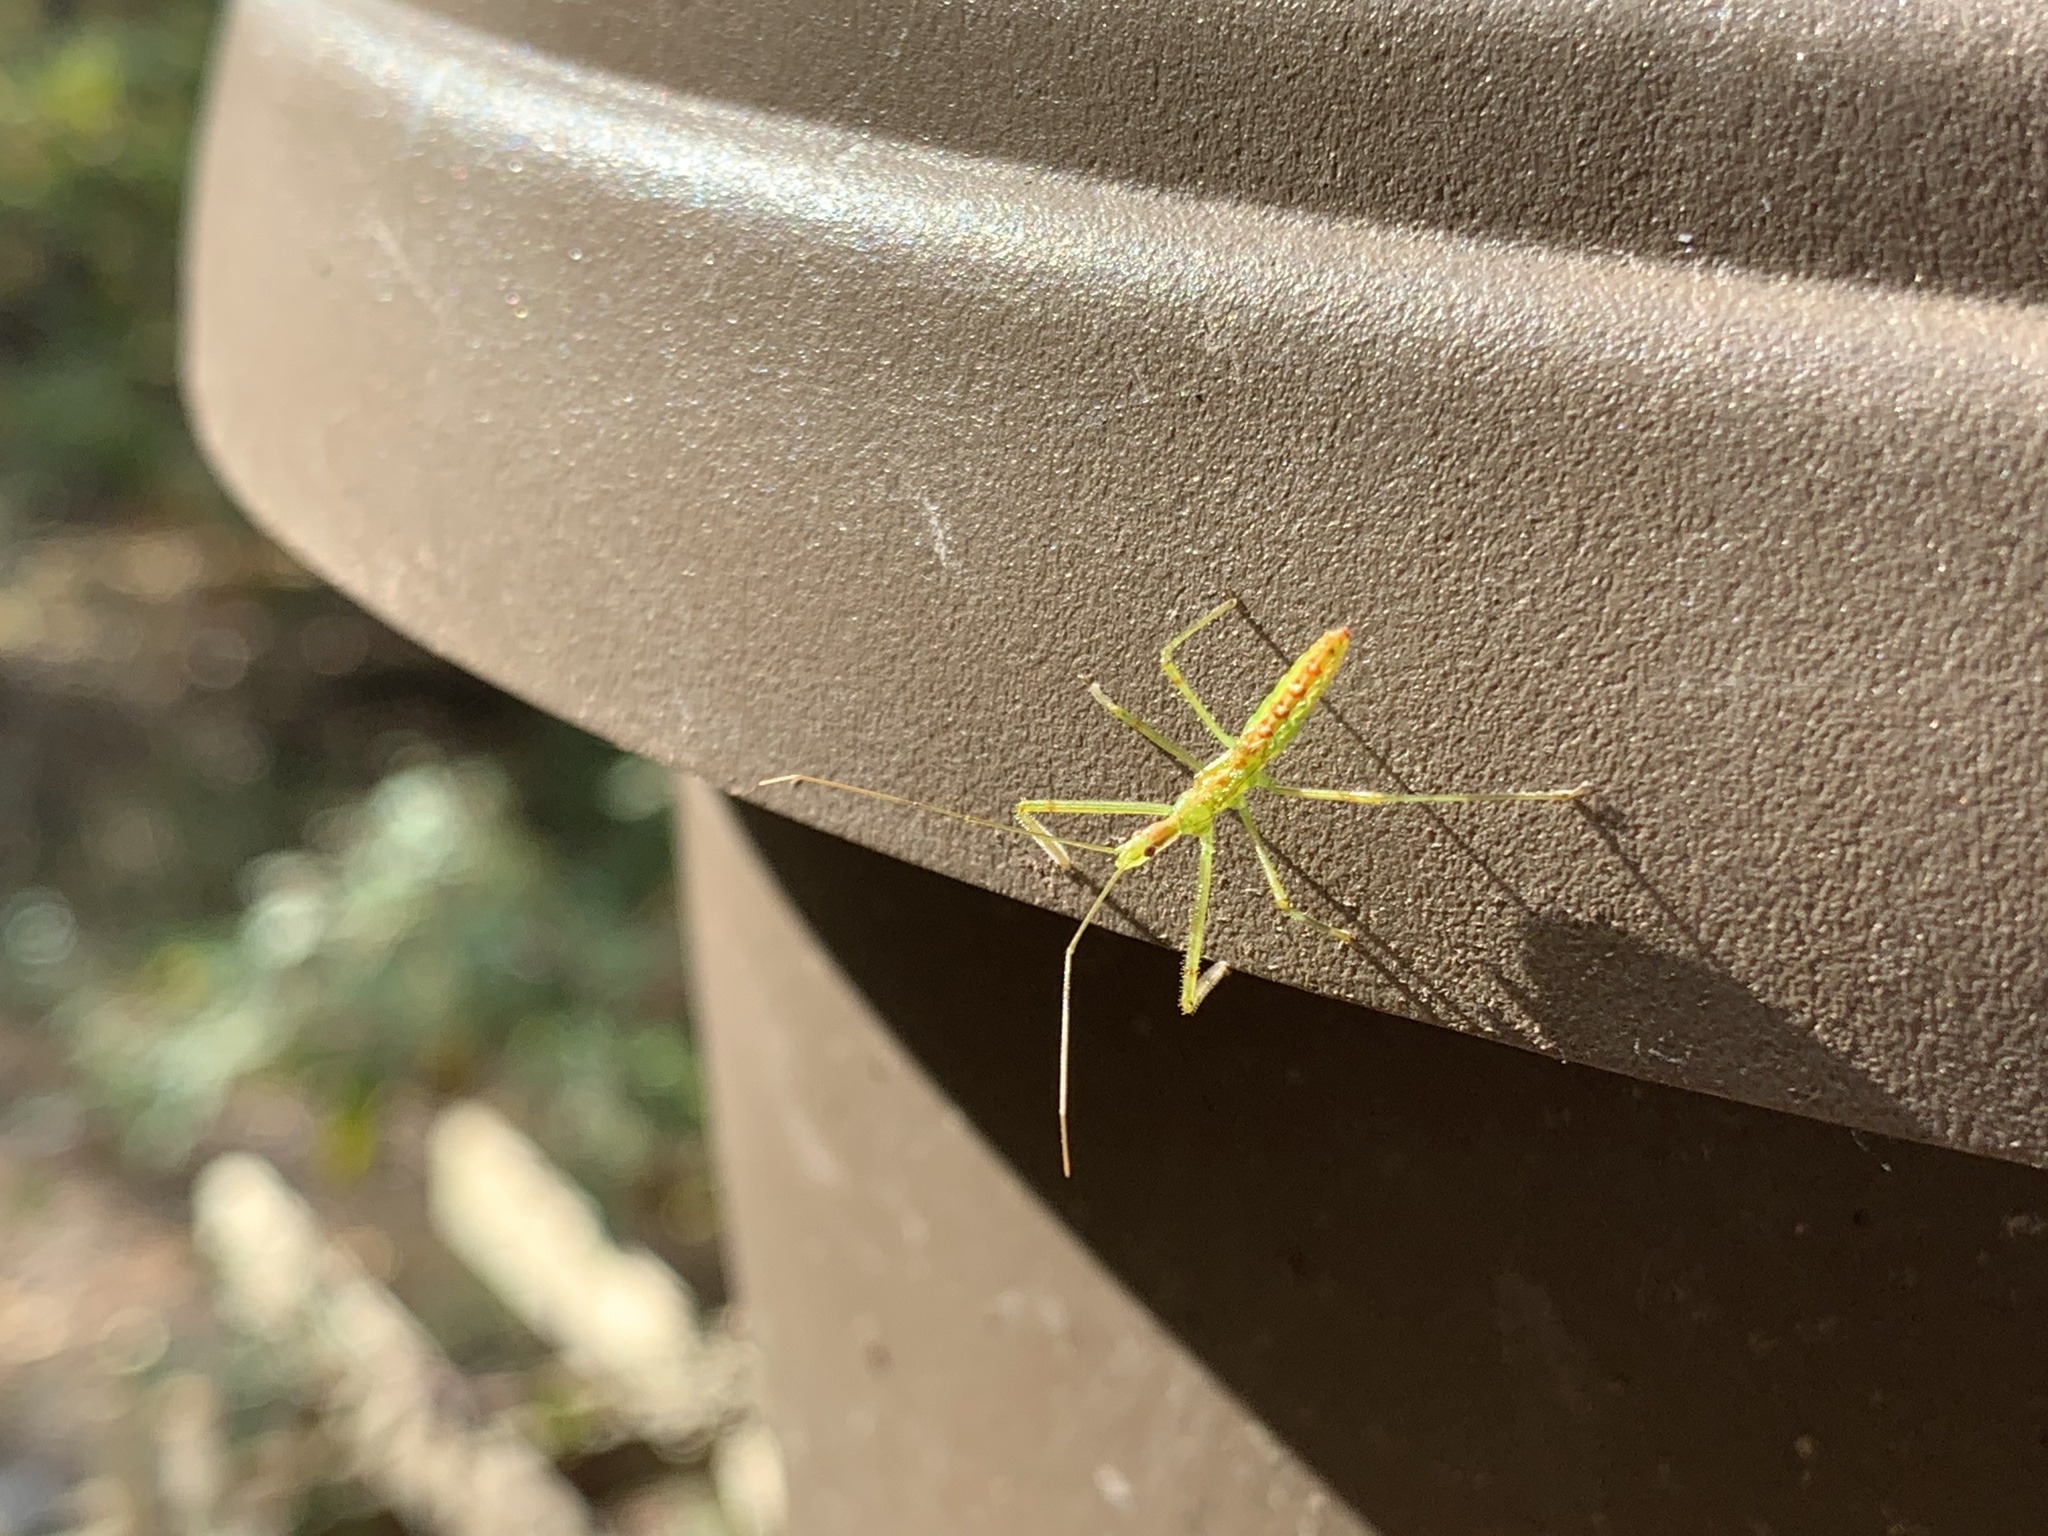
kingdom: Animalia
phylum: Arthropoda
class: Insecta
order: Hemiptera
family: Reduviidae
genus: Zelus
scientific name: Zelus luridus
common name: Pale green assassin bug
